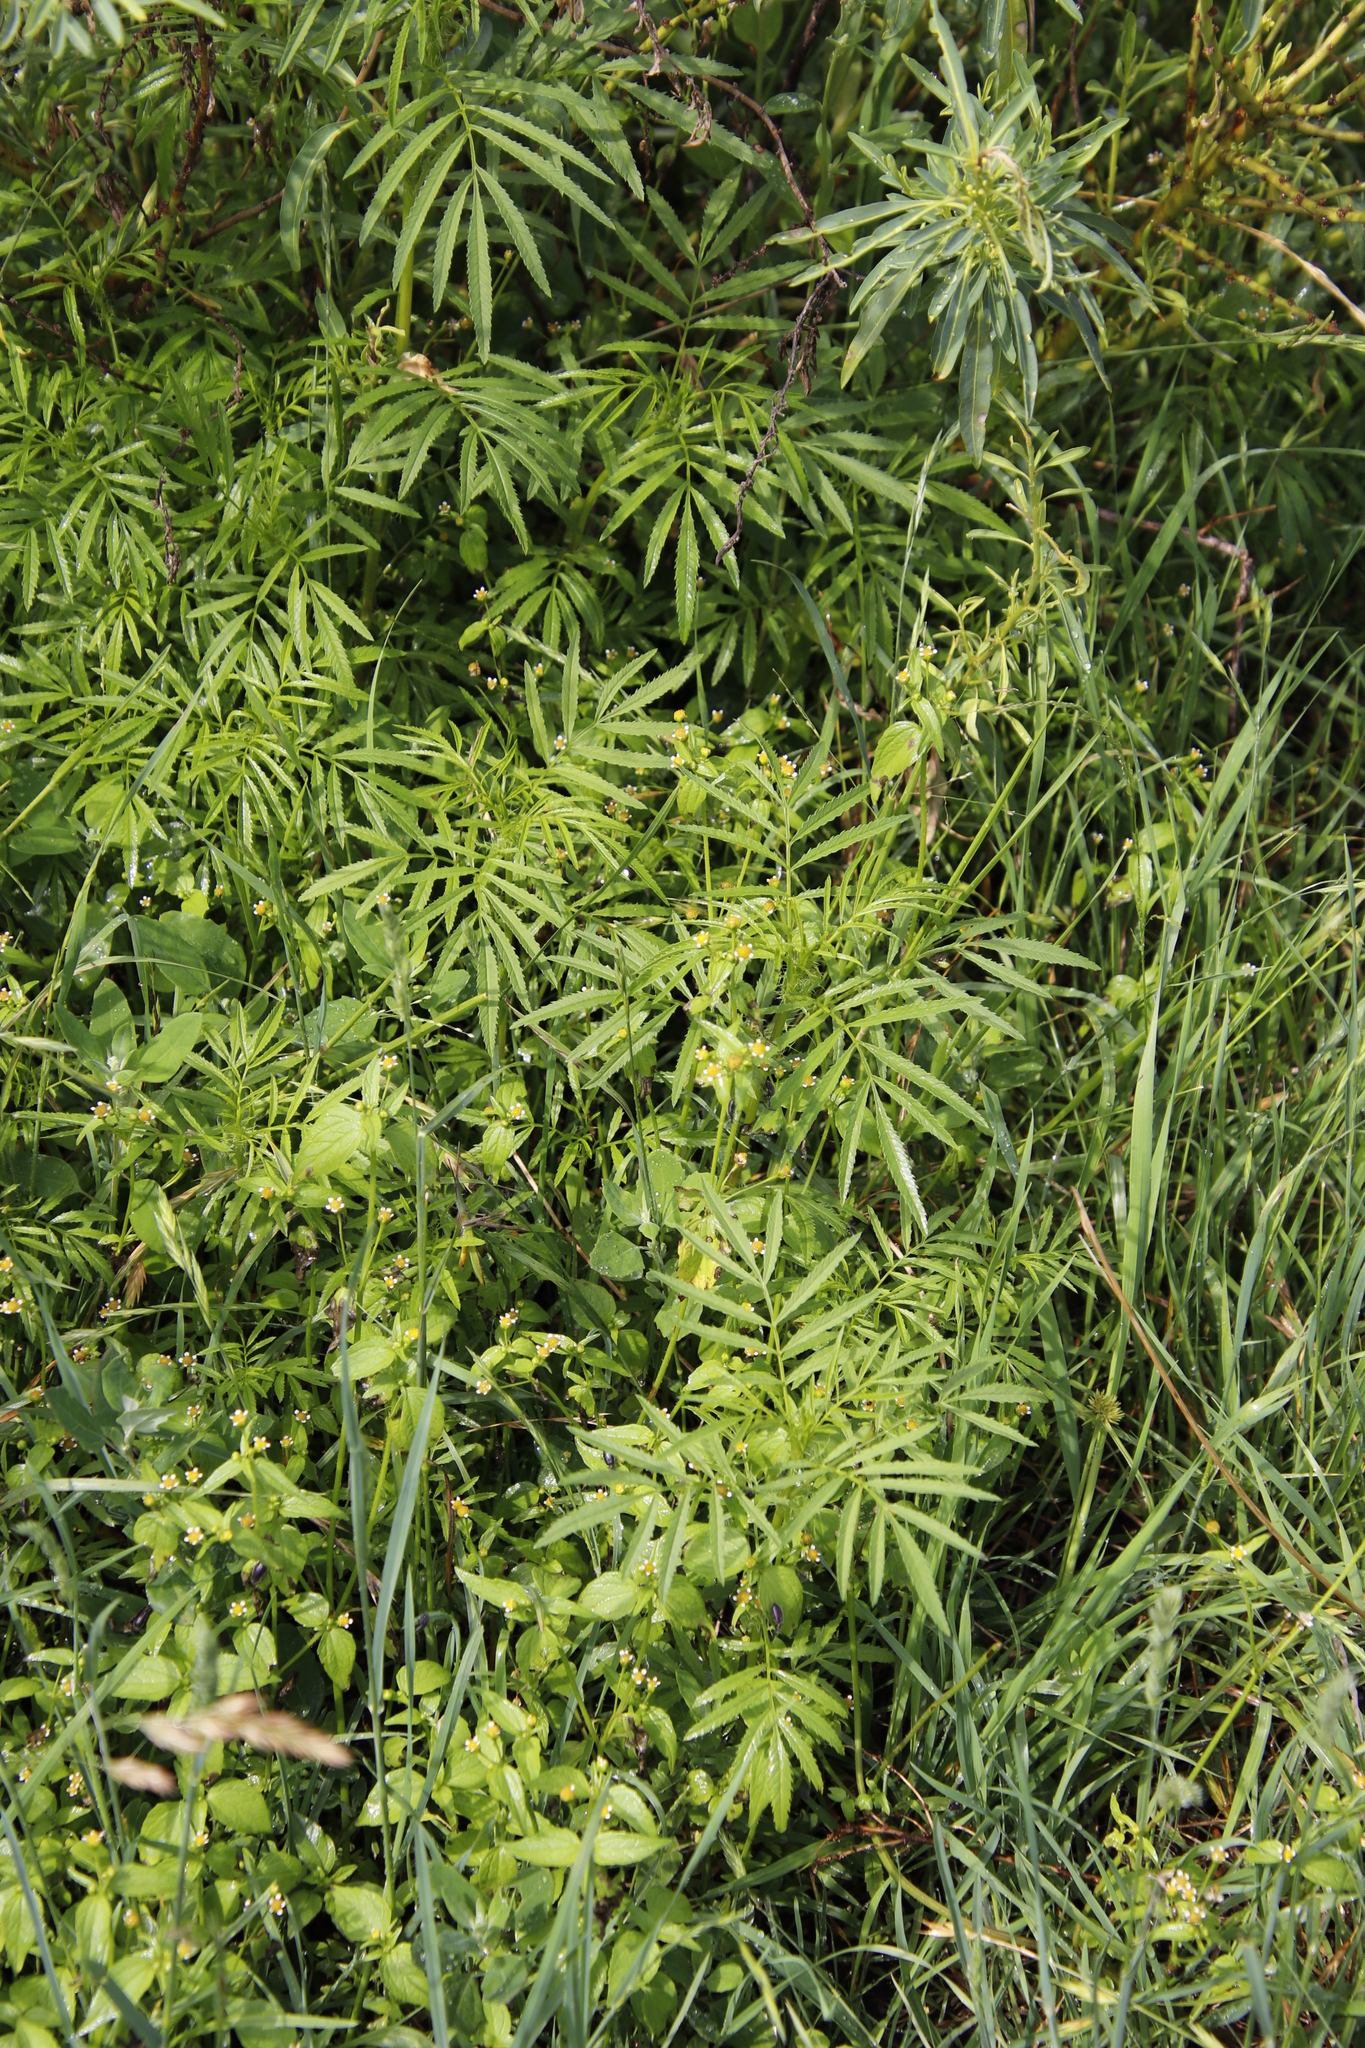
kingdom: Plantae
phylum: Tracheophyta
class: Magnoliopsida
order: Asterales
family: Asteraceae
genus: Tagetes
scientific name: Tagetes minuta
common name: Muster john henry
